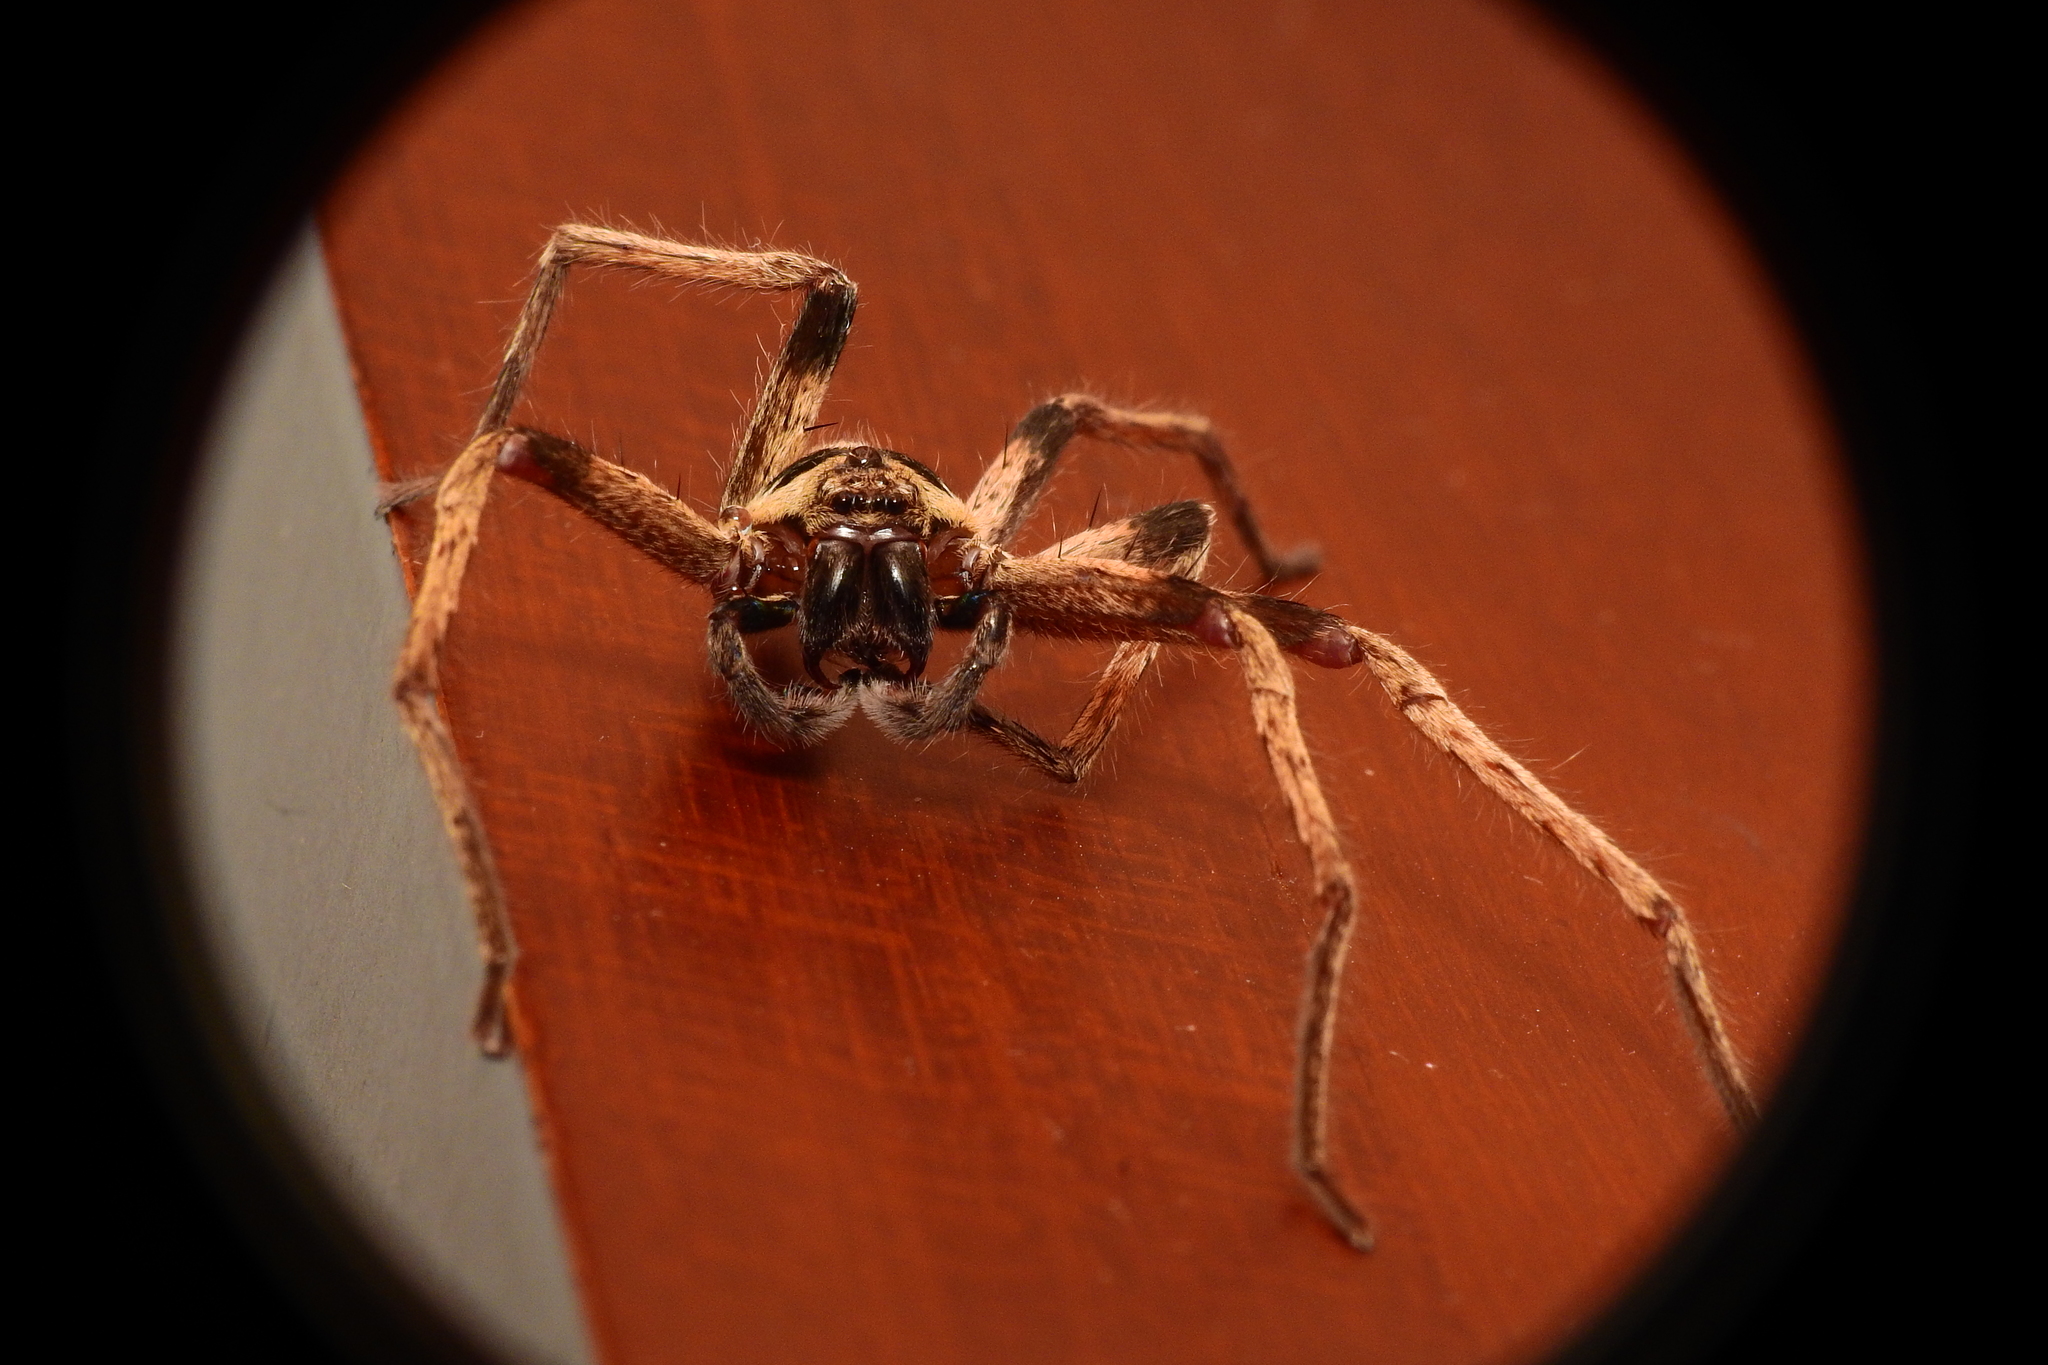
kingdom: Animalia
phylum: Arthropoda
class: Arachnida
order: Araneae
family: Sparassidae
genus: Heteropoda
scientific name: Heteropoda martinae
